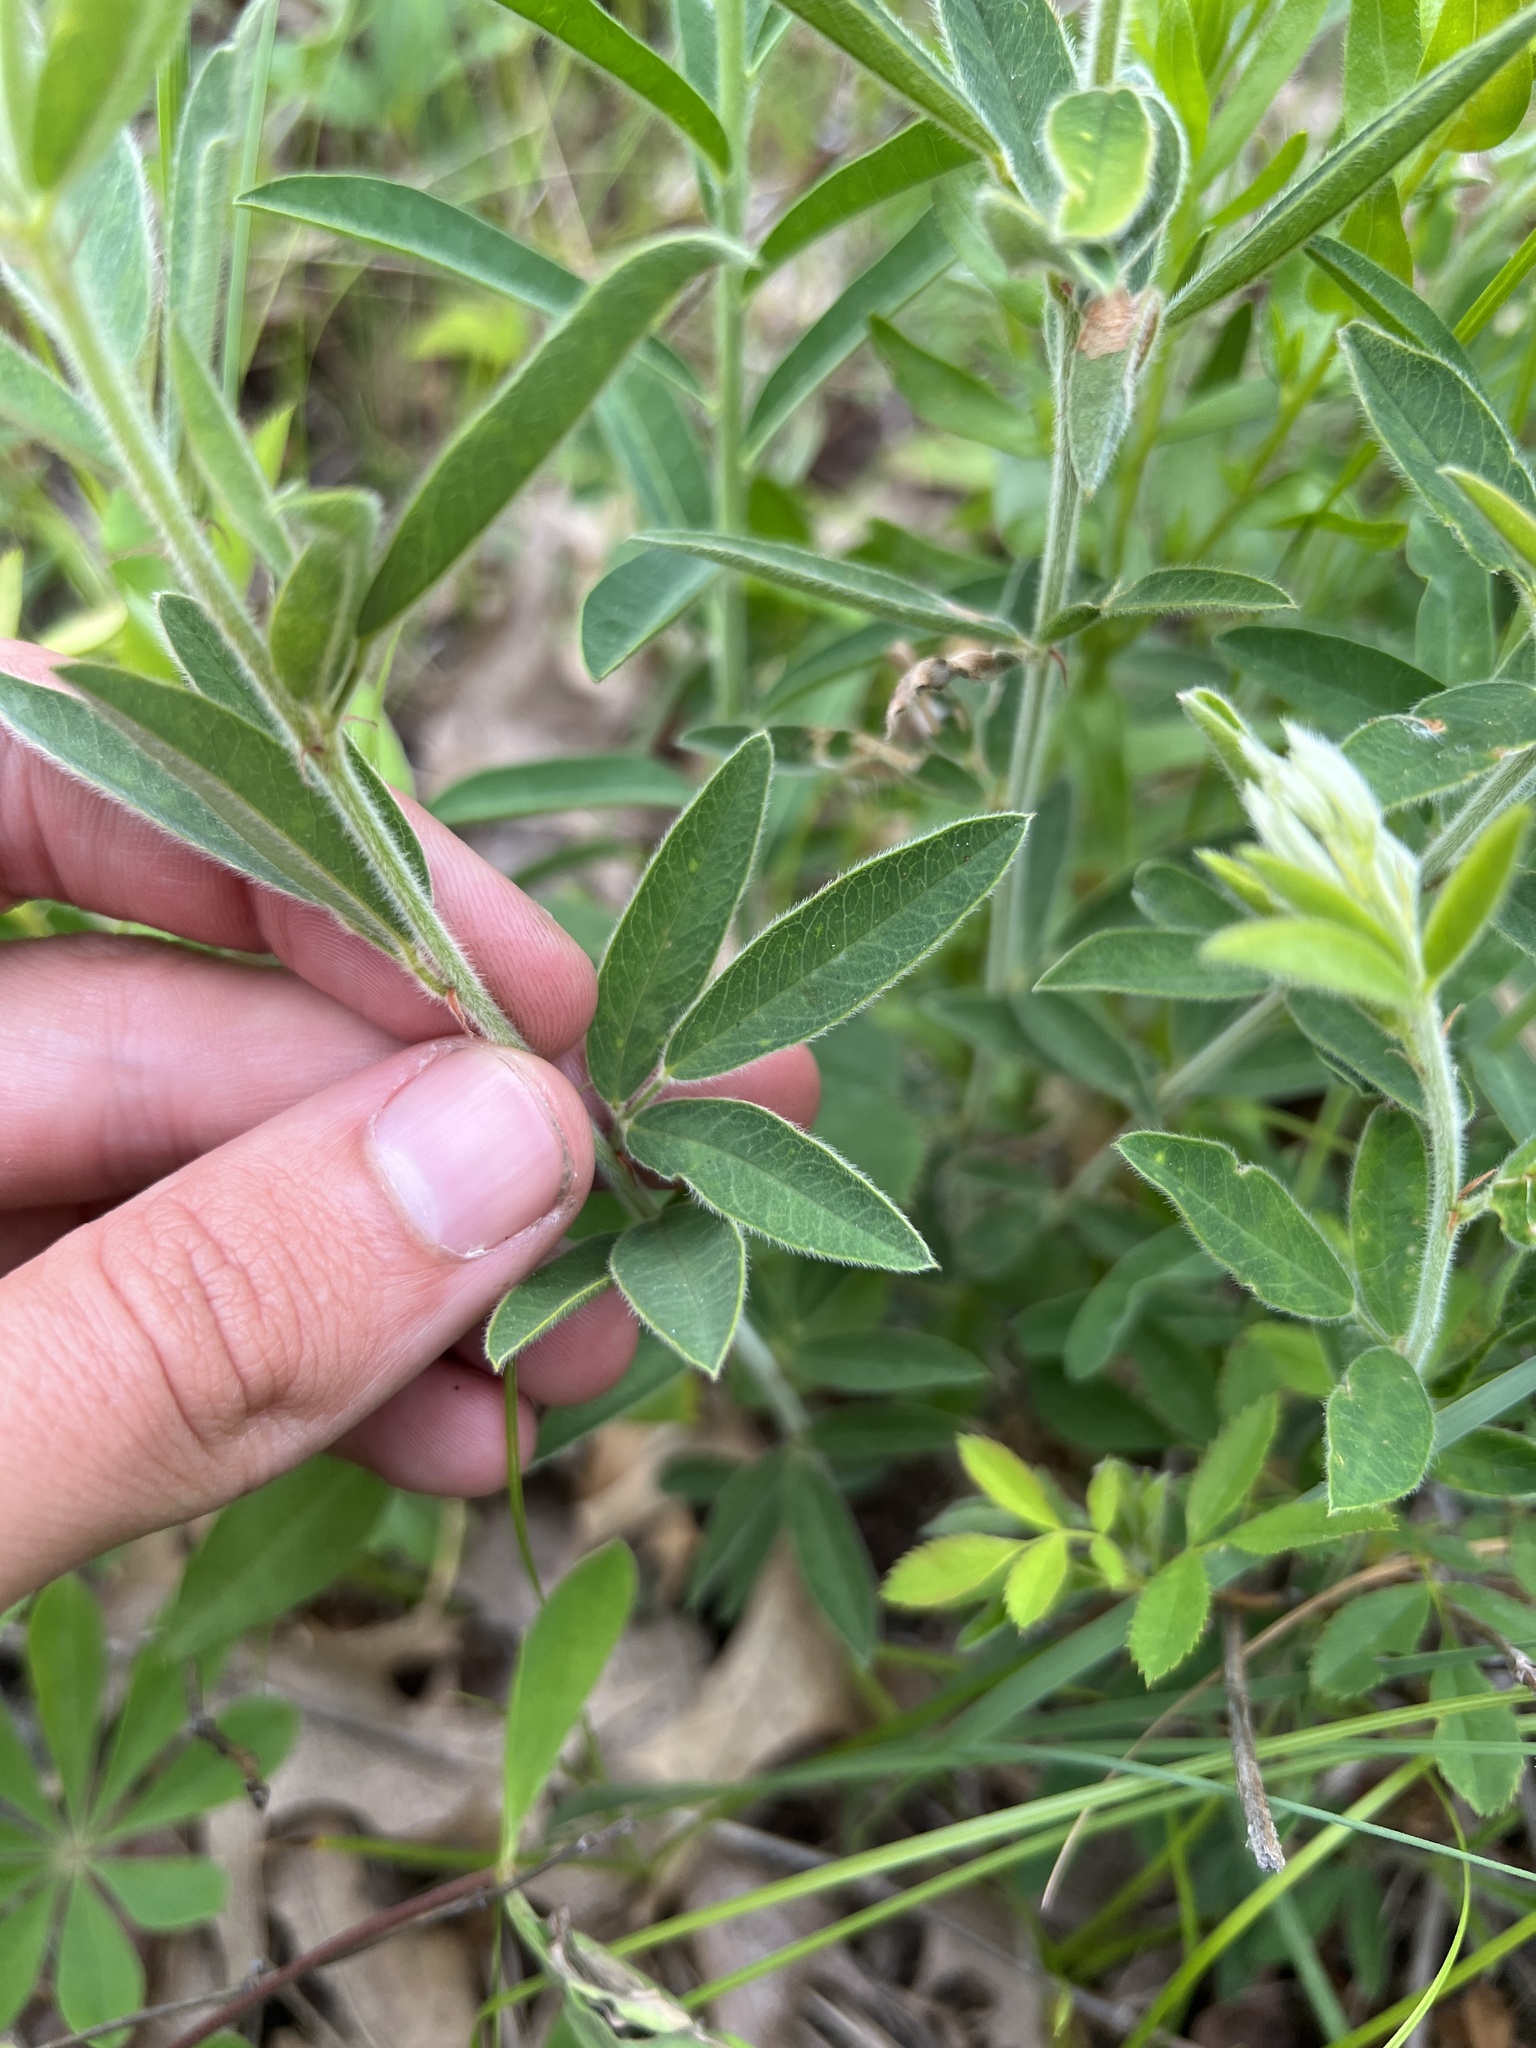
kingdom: Plantae
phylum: Tracheophyta
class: Magnoliopsida
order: Fabales
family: Fabaceae
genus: Lupinus
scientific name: Lupinus perennis
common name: Sundial lupine
